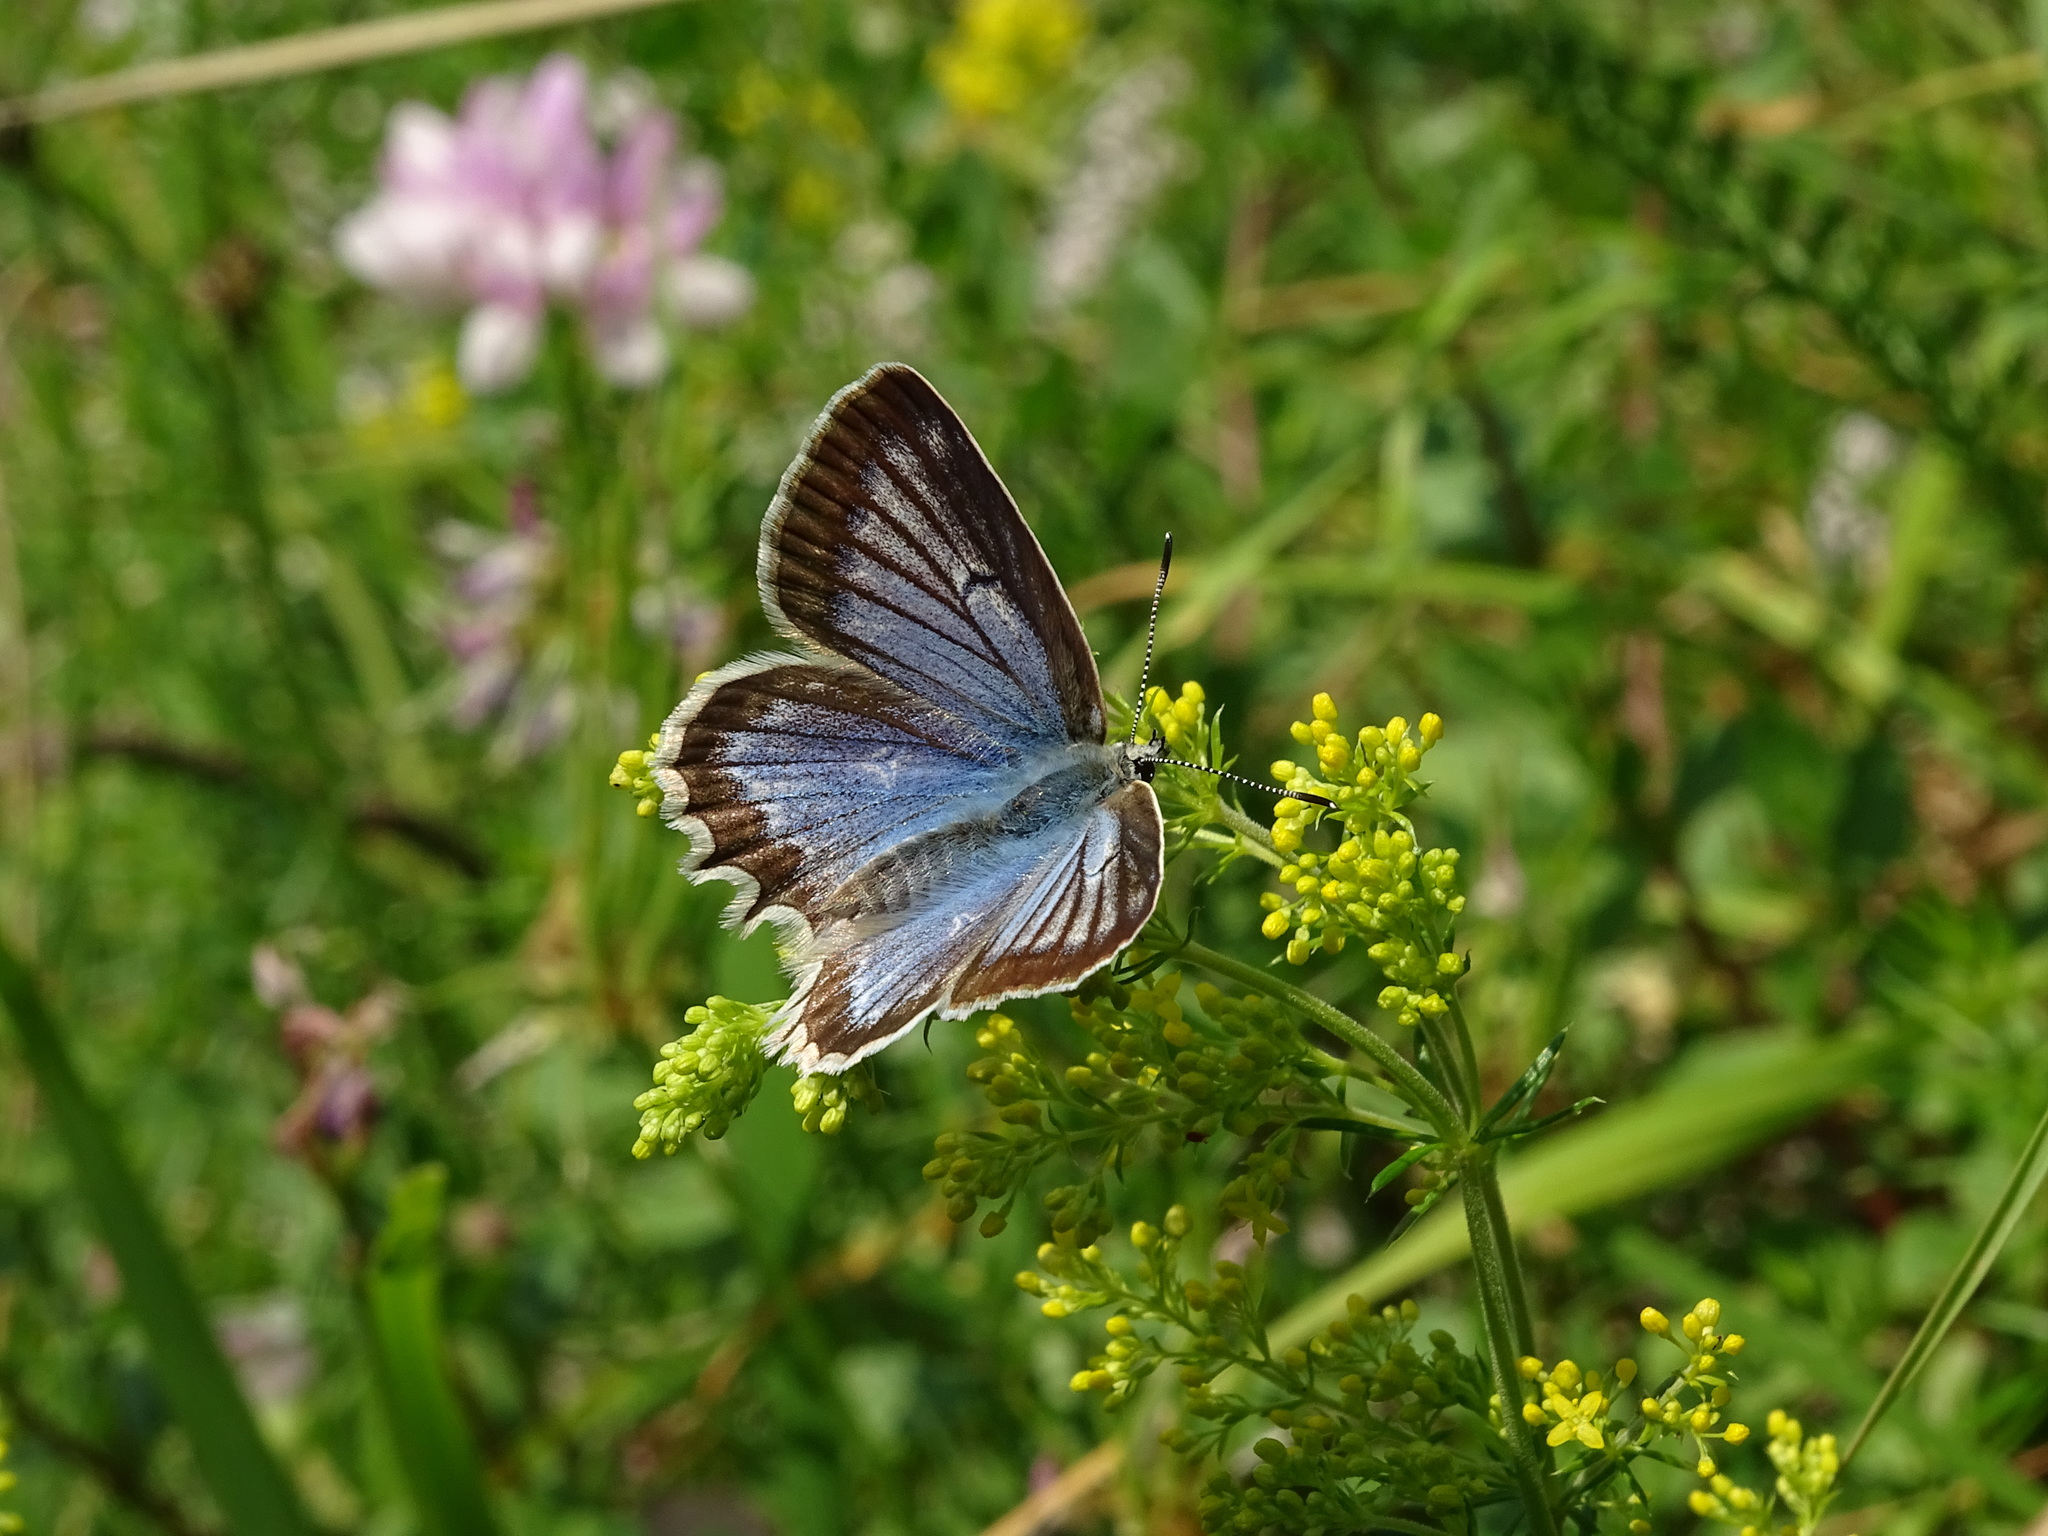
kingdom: Animalia
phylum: Arthropoda
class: Insecta
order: Lepidoptera
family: Lycaenidae
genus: Polyommatus
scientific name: Polyommatus daphnis
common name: Meleager's blue
